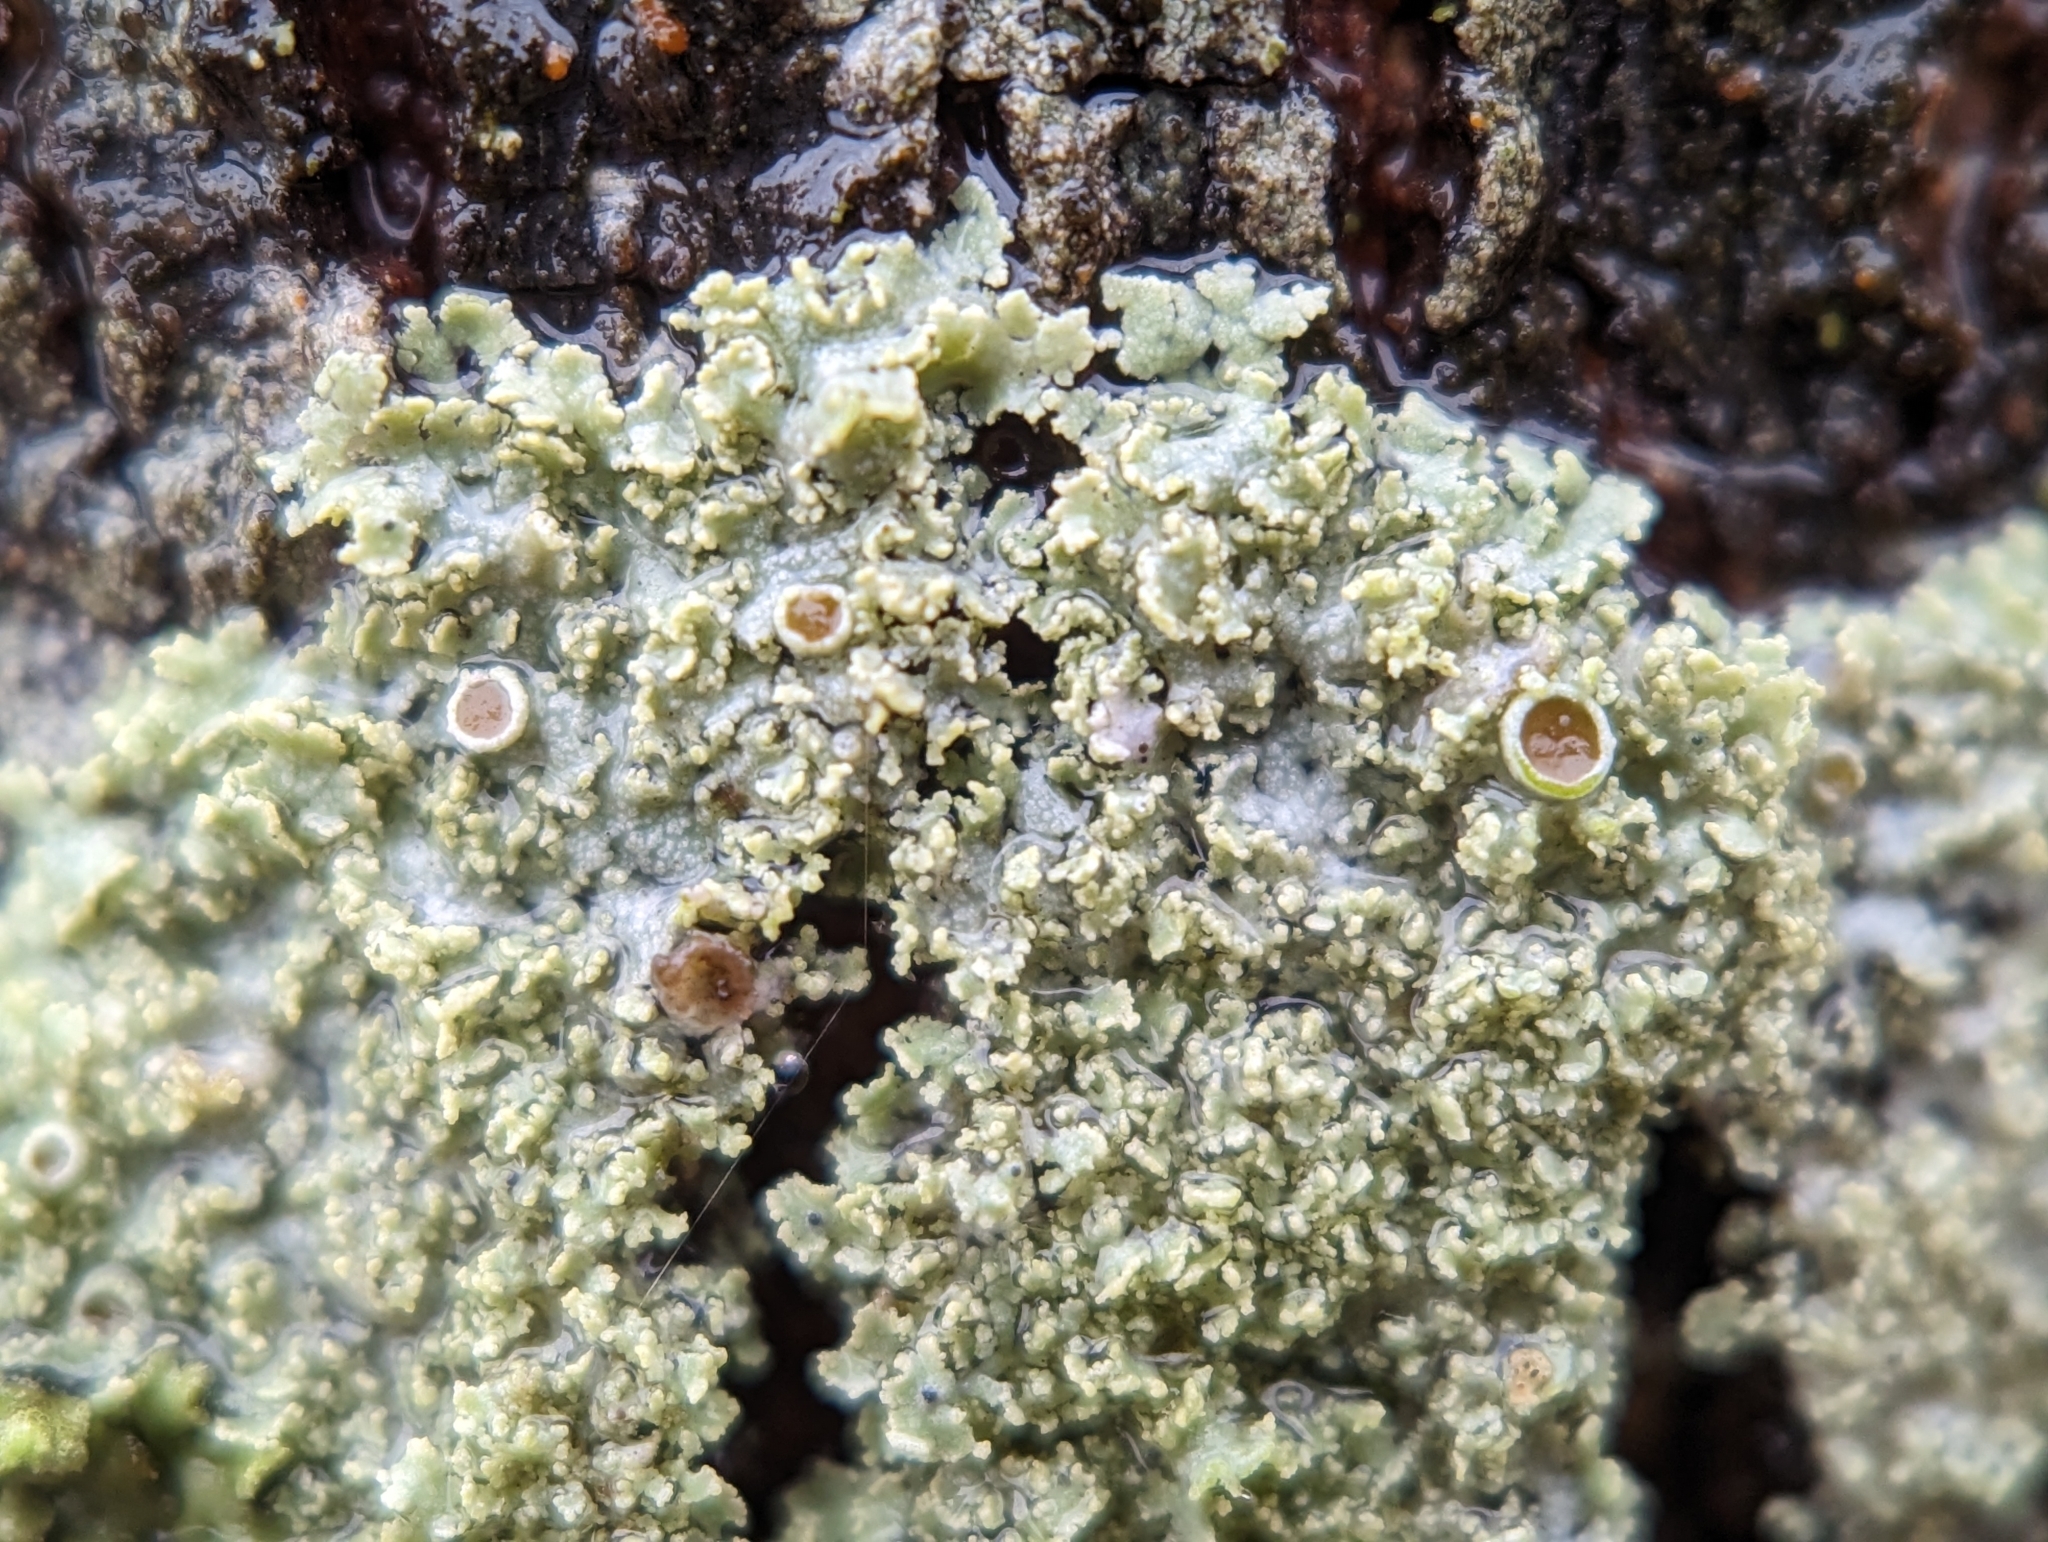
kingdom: Fungi
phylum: Ascomycota
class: Lecanoromycetes
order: Caliciales
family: Physciaceae
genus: Physcia
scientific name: Physcia millegrana
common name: Rosette lichen
